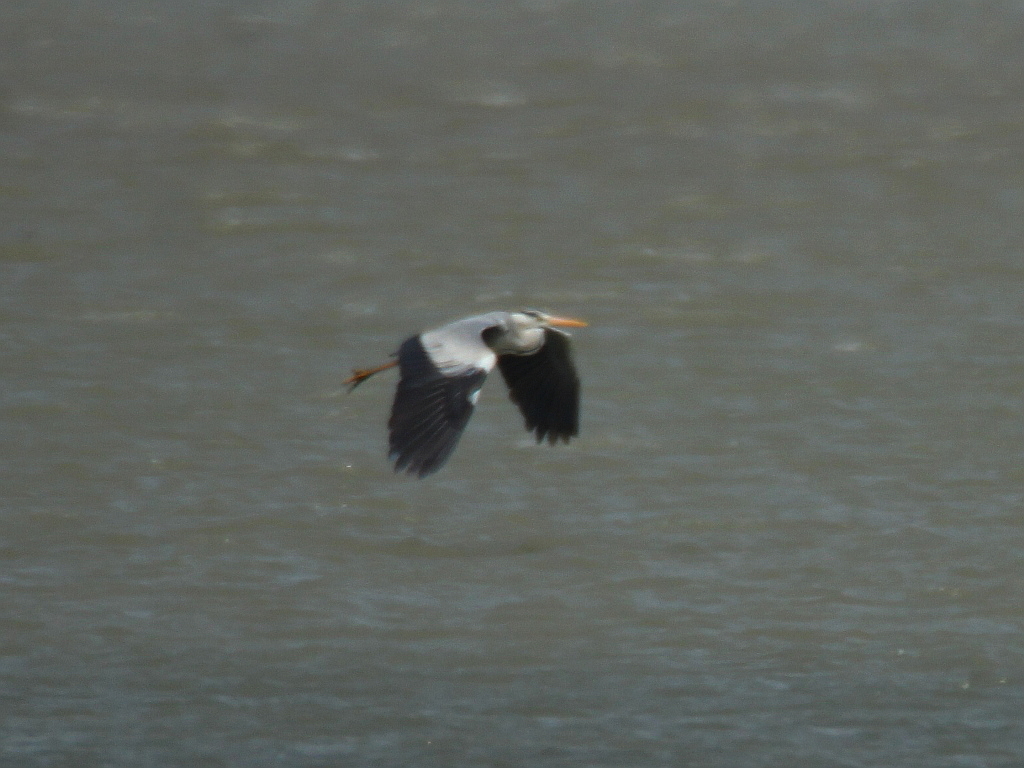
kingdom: Animalia
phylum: Chordata
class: Aves
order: Pelecaniformes
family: Ardeidae
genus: Ardea
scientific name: Ardea cinerea
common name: Grey heron
